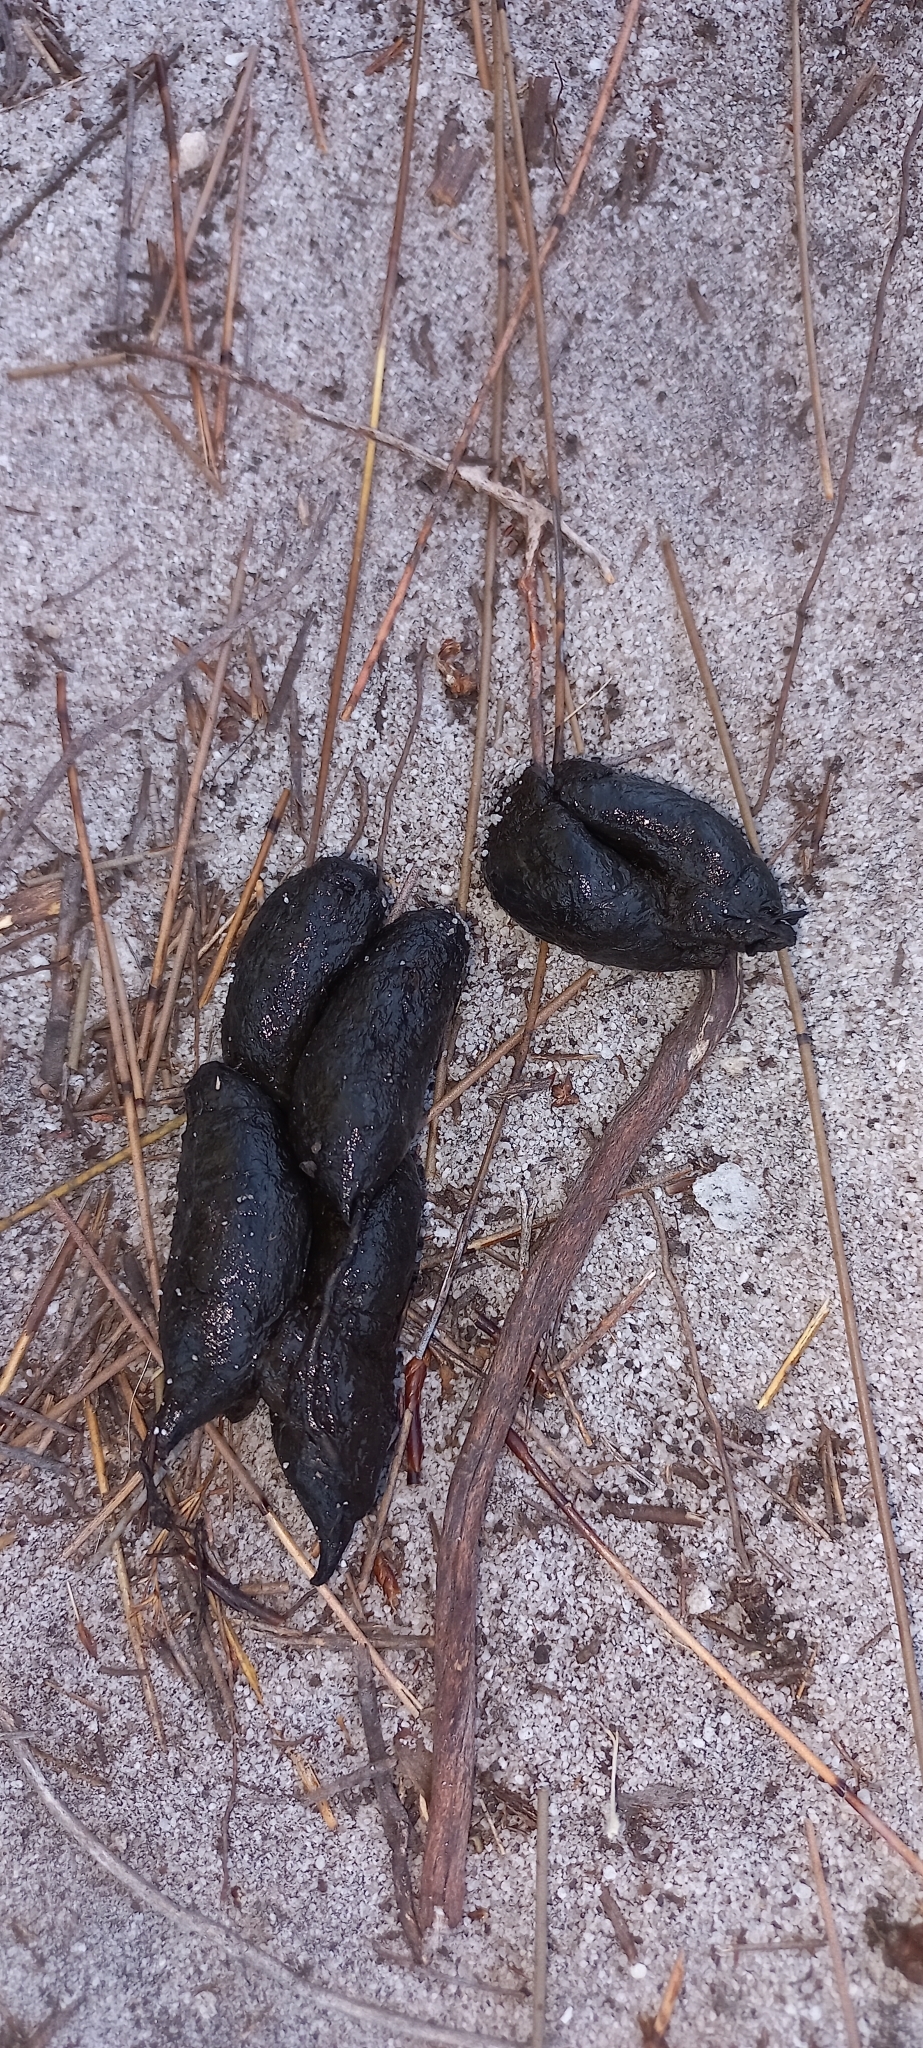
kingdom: Animalia
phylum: Chordata
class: Mammalia
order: Rodentia
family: Hystricidae
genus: Hystrix
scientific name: Hystrix africaeaustralis
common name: Cape porcupine
